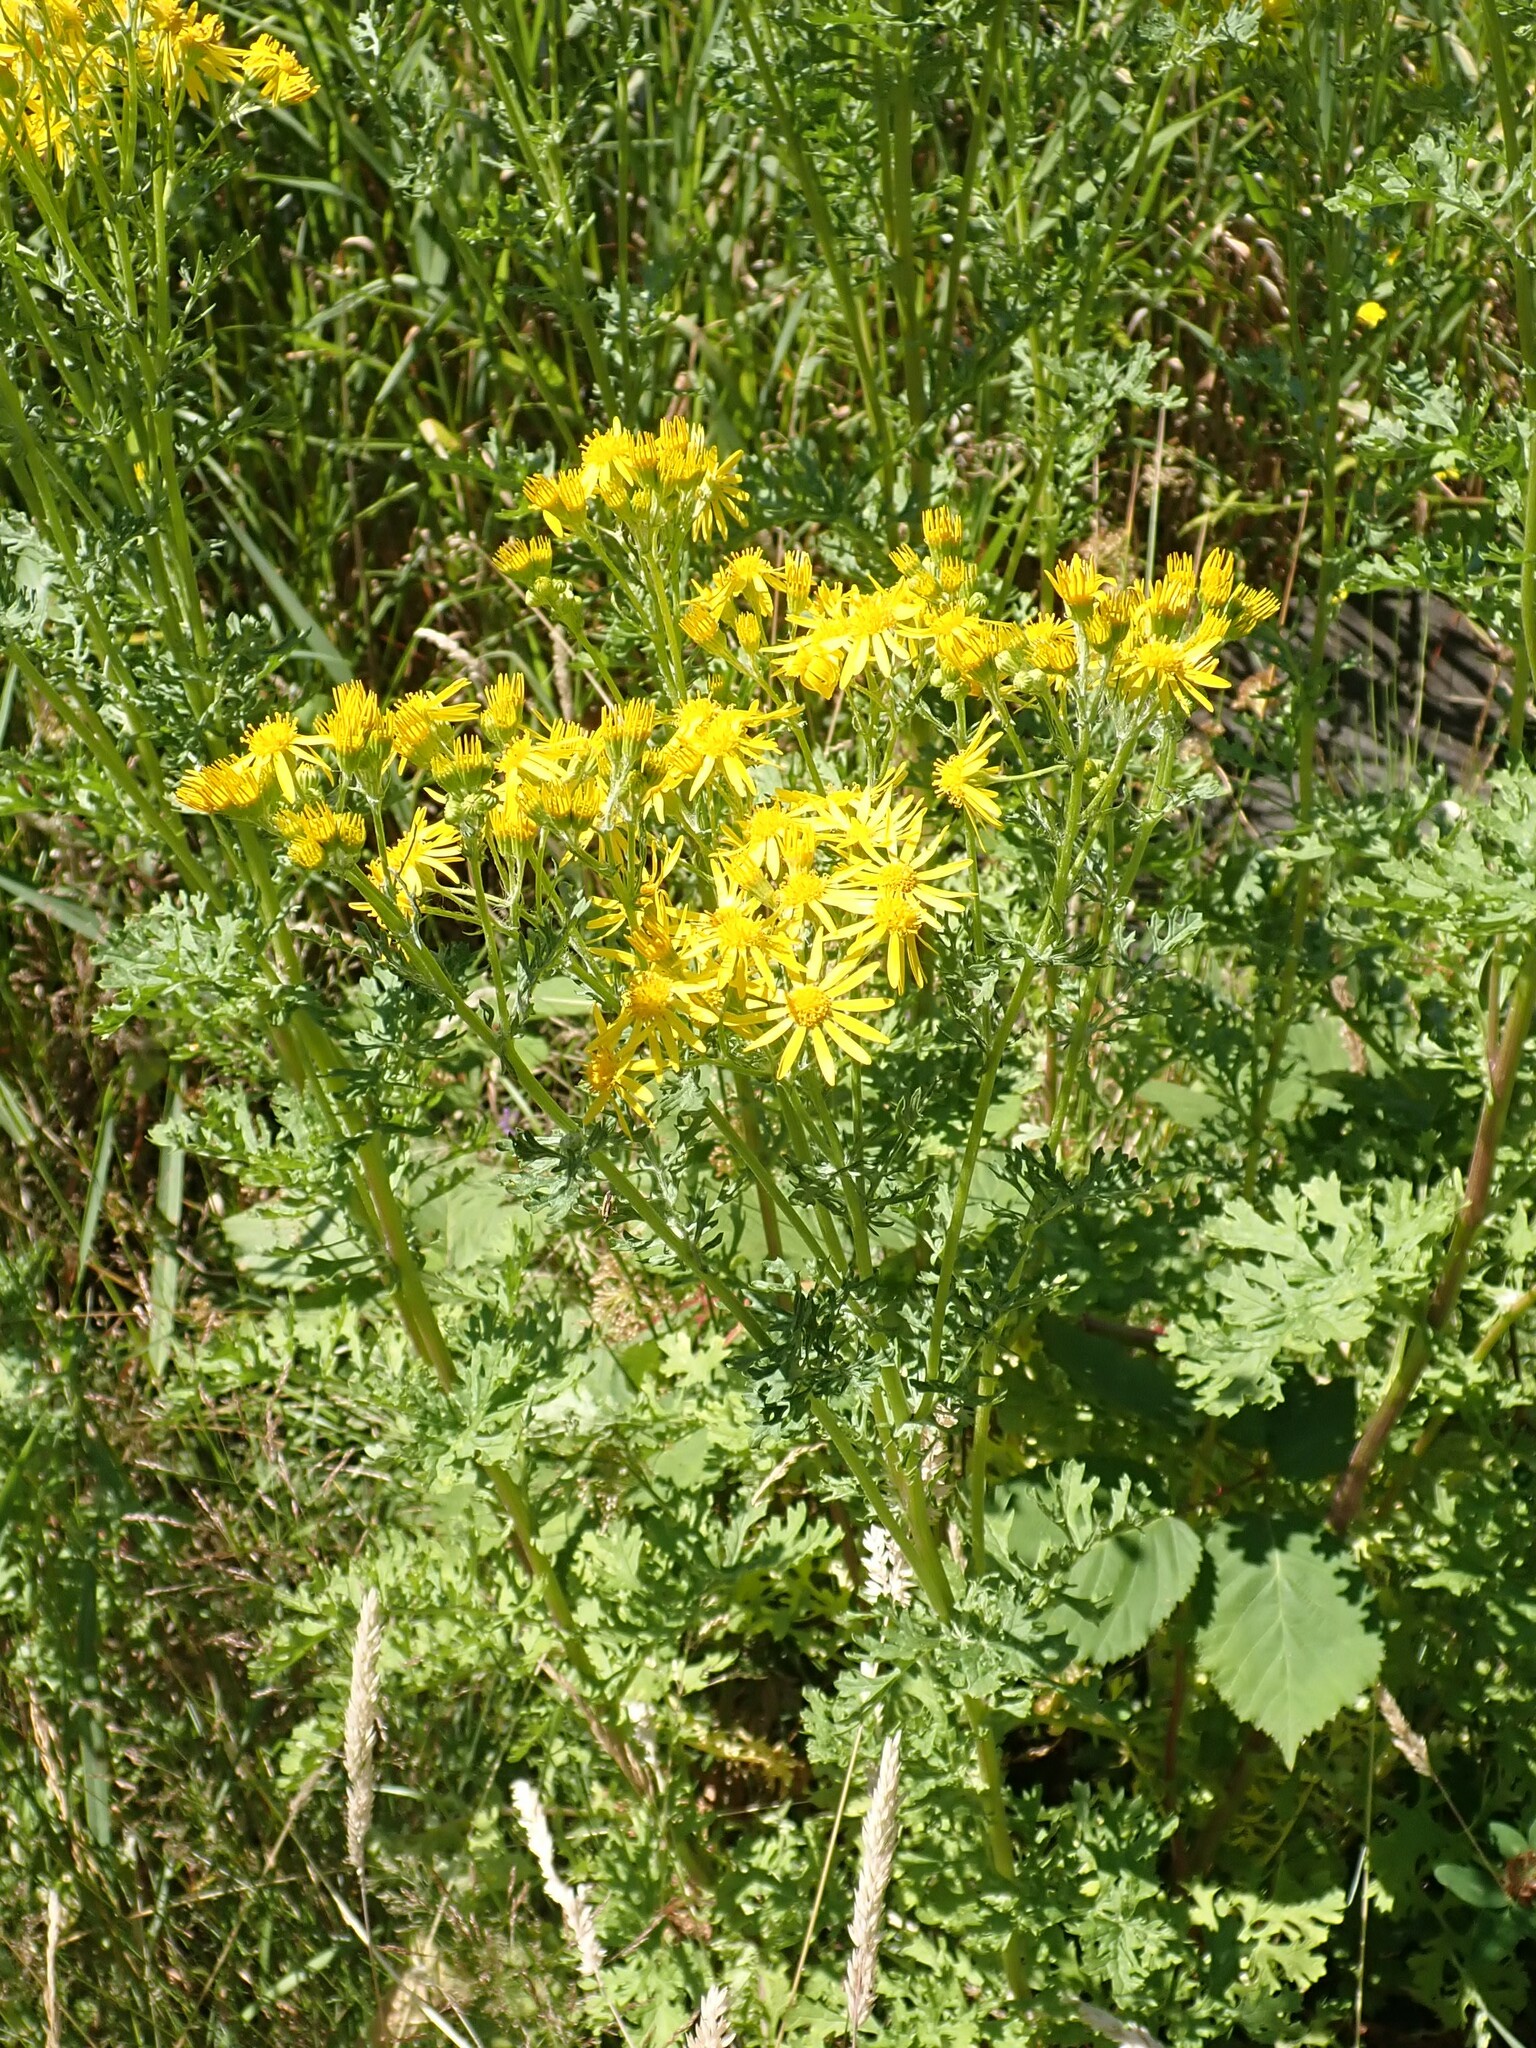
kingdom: Plantae
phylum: Tracheophyta
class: Magnoliopsida
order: Asterales
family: Asteraceae
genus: Jacobaea
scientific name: Jacobaea vulgaris
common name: Stinking willie
